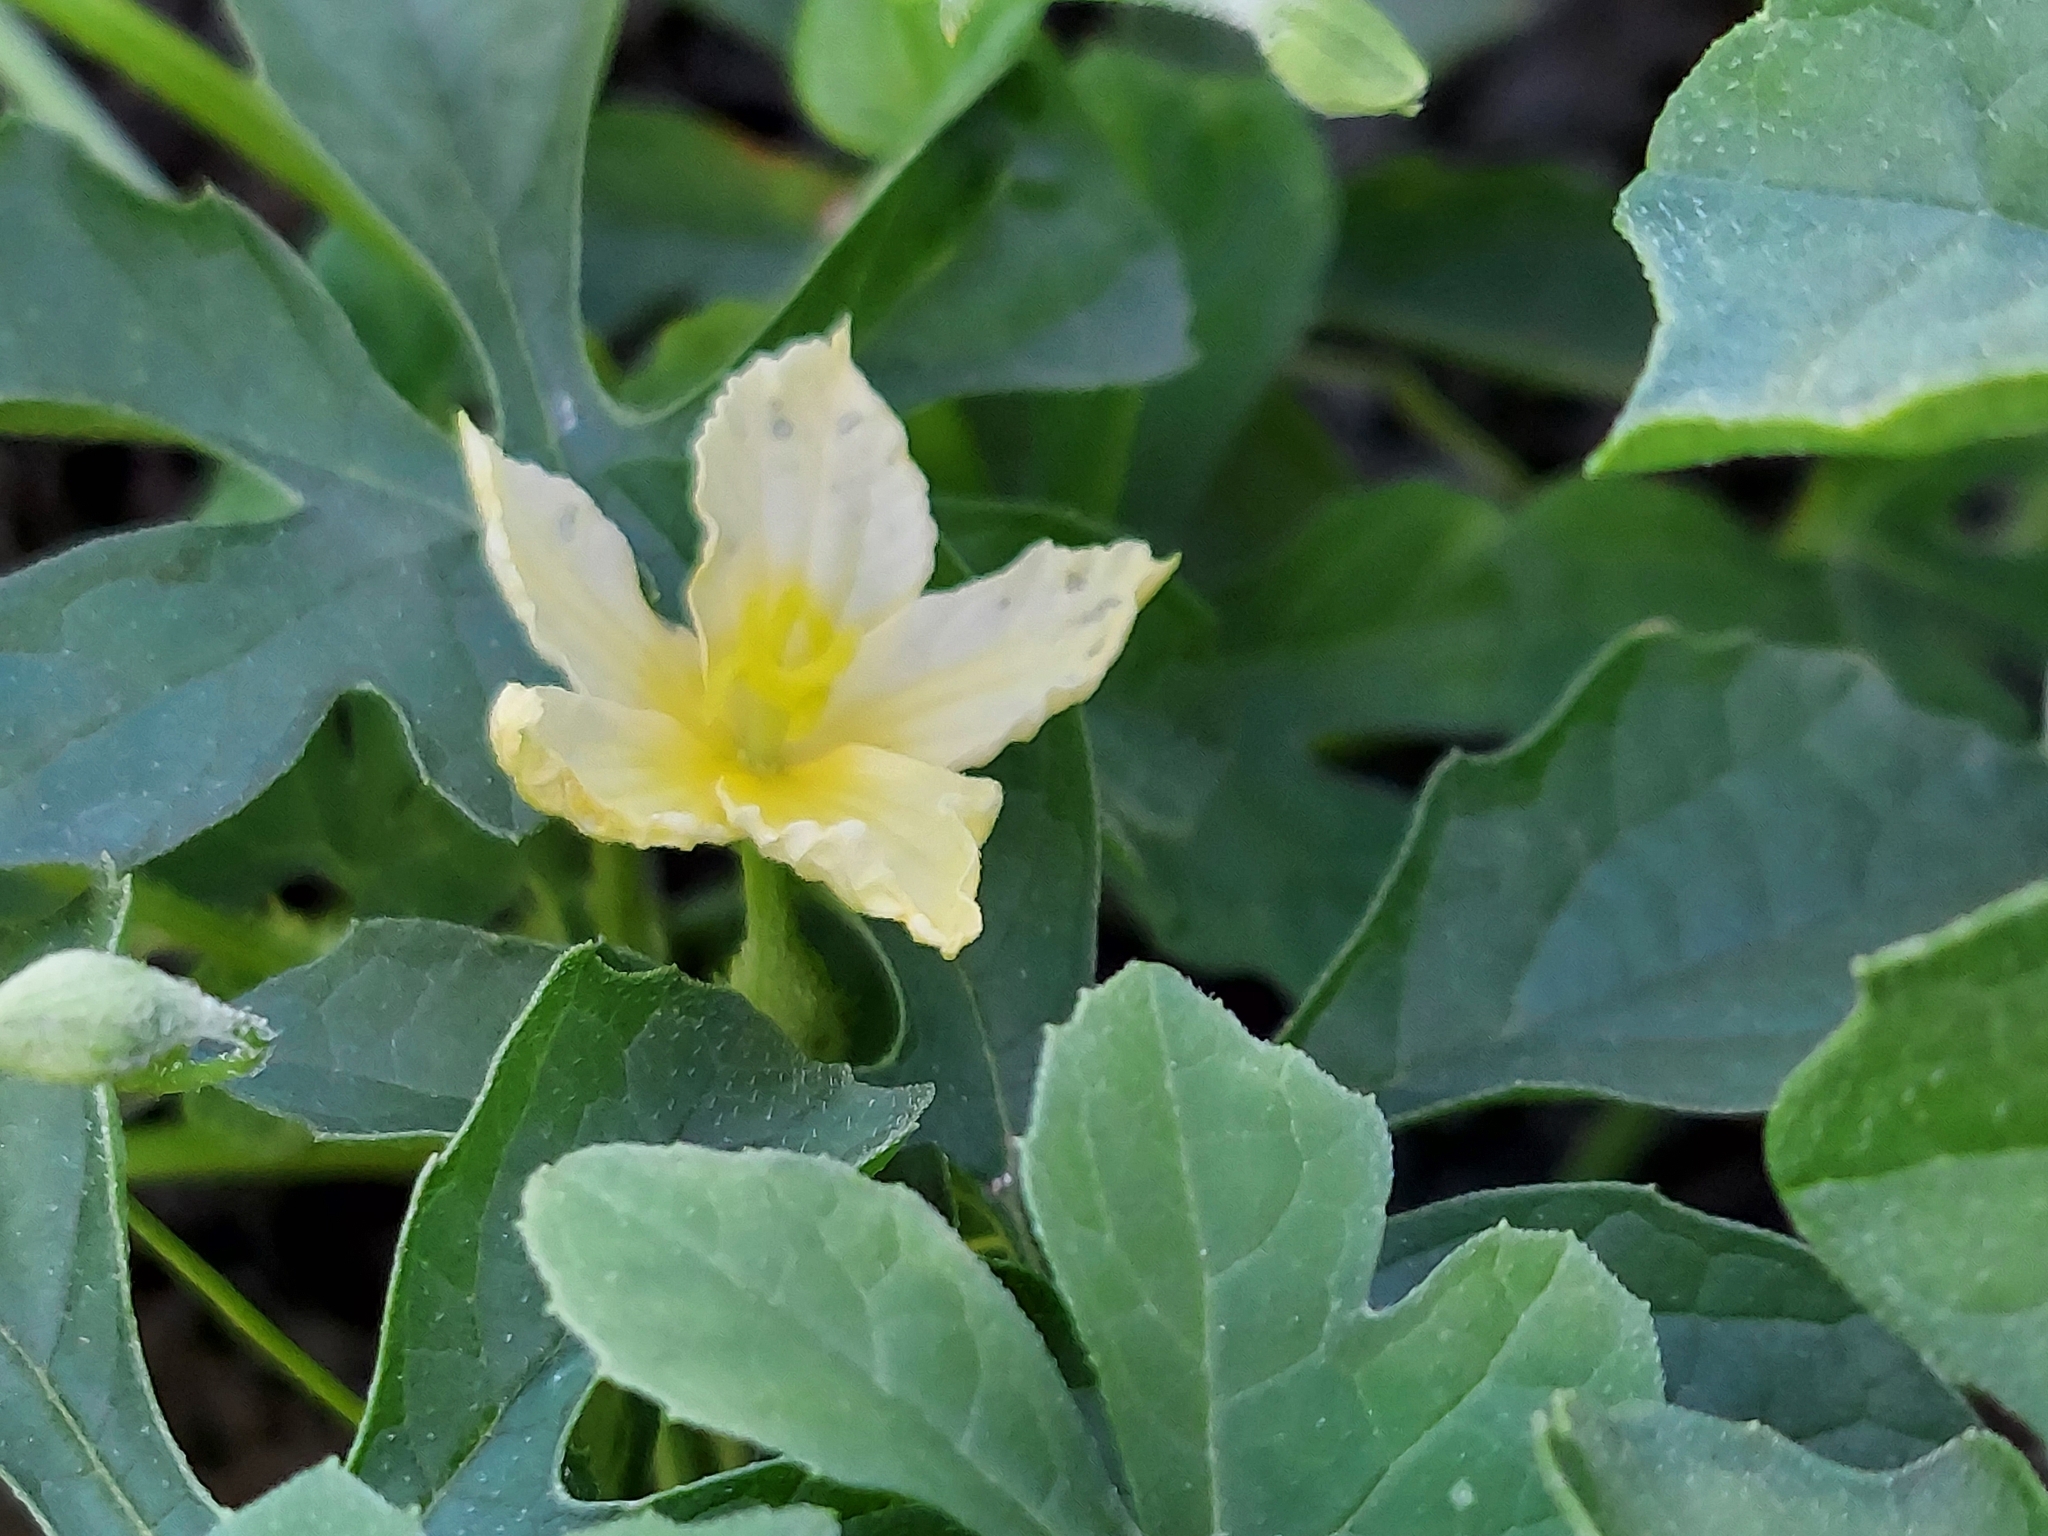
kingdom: Plantae
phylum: Tracheophyta
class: Magnoliopsida
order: Cucurbitales
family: Cucurbitaceae
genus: Momordica
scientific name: Momordica charantia
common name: Balsampear
